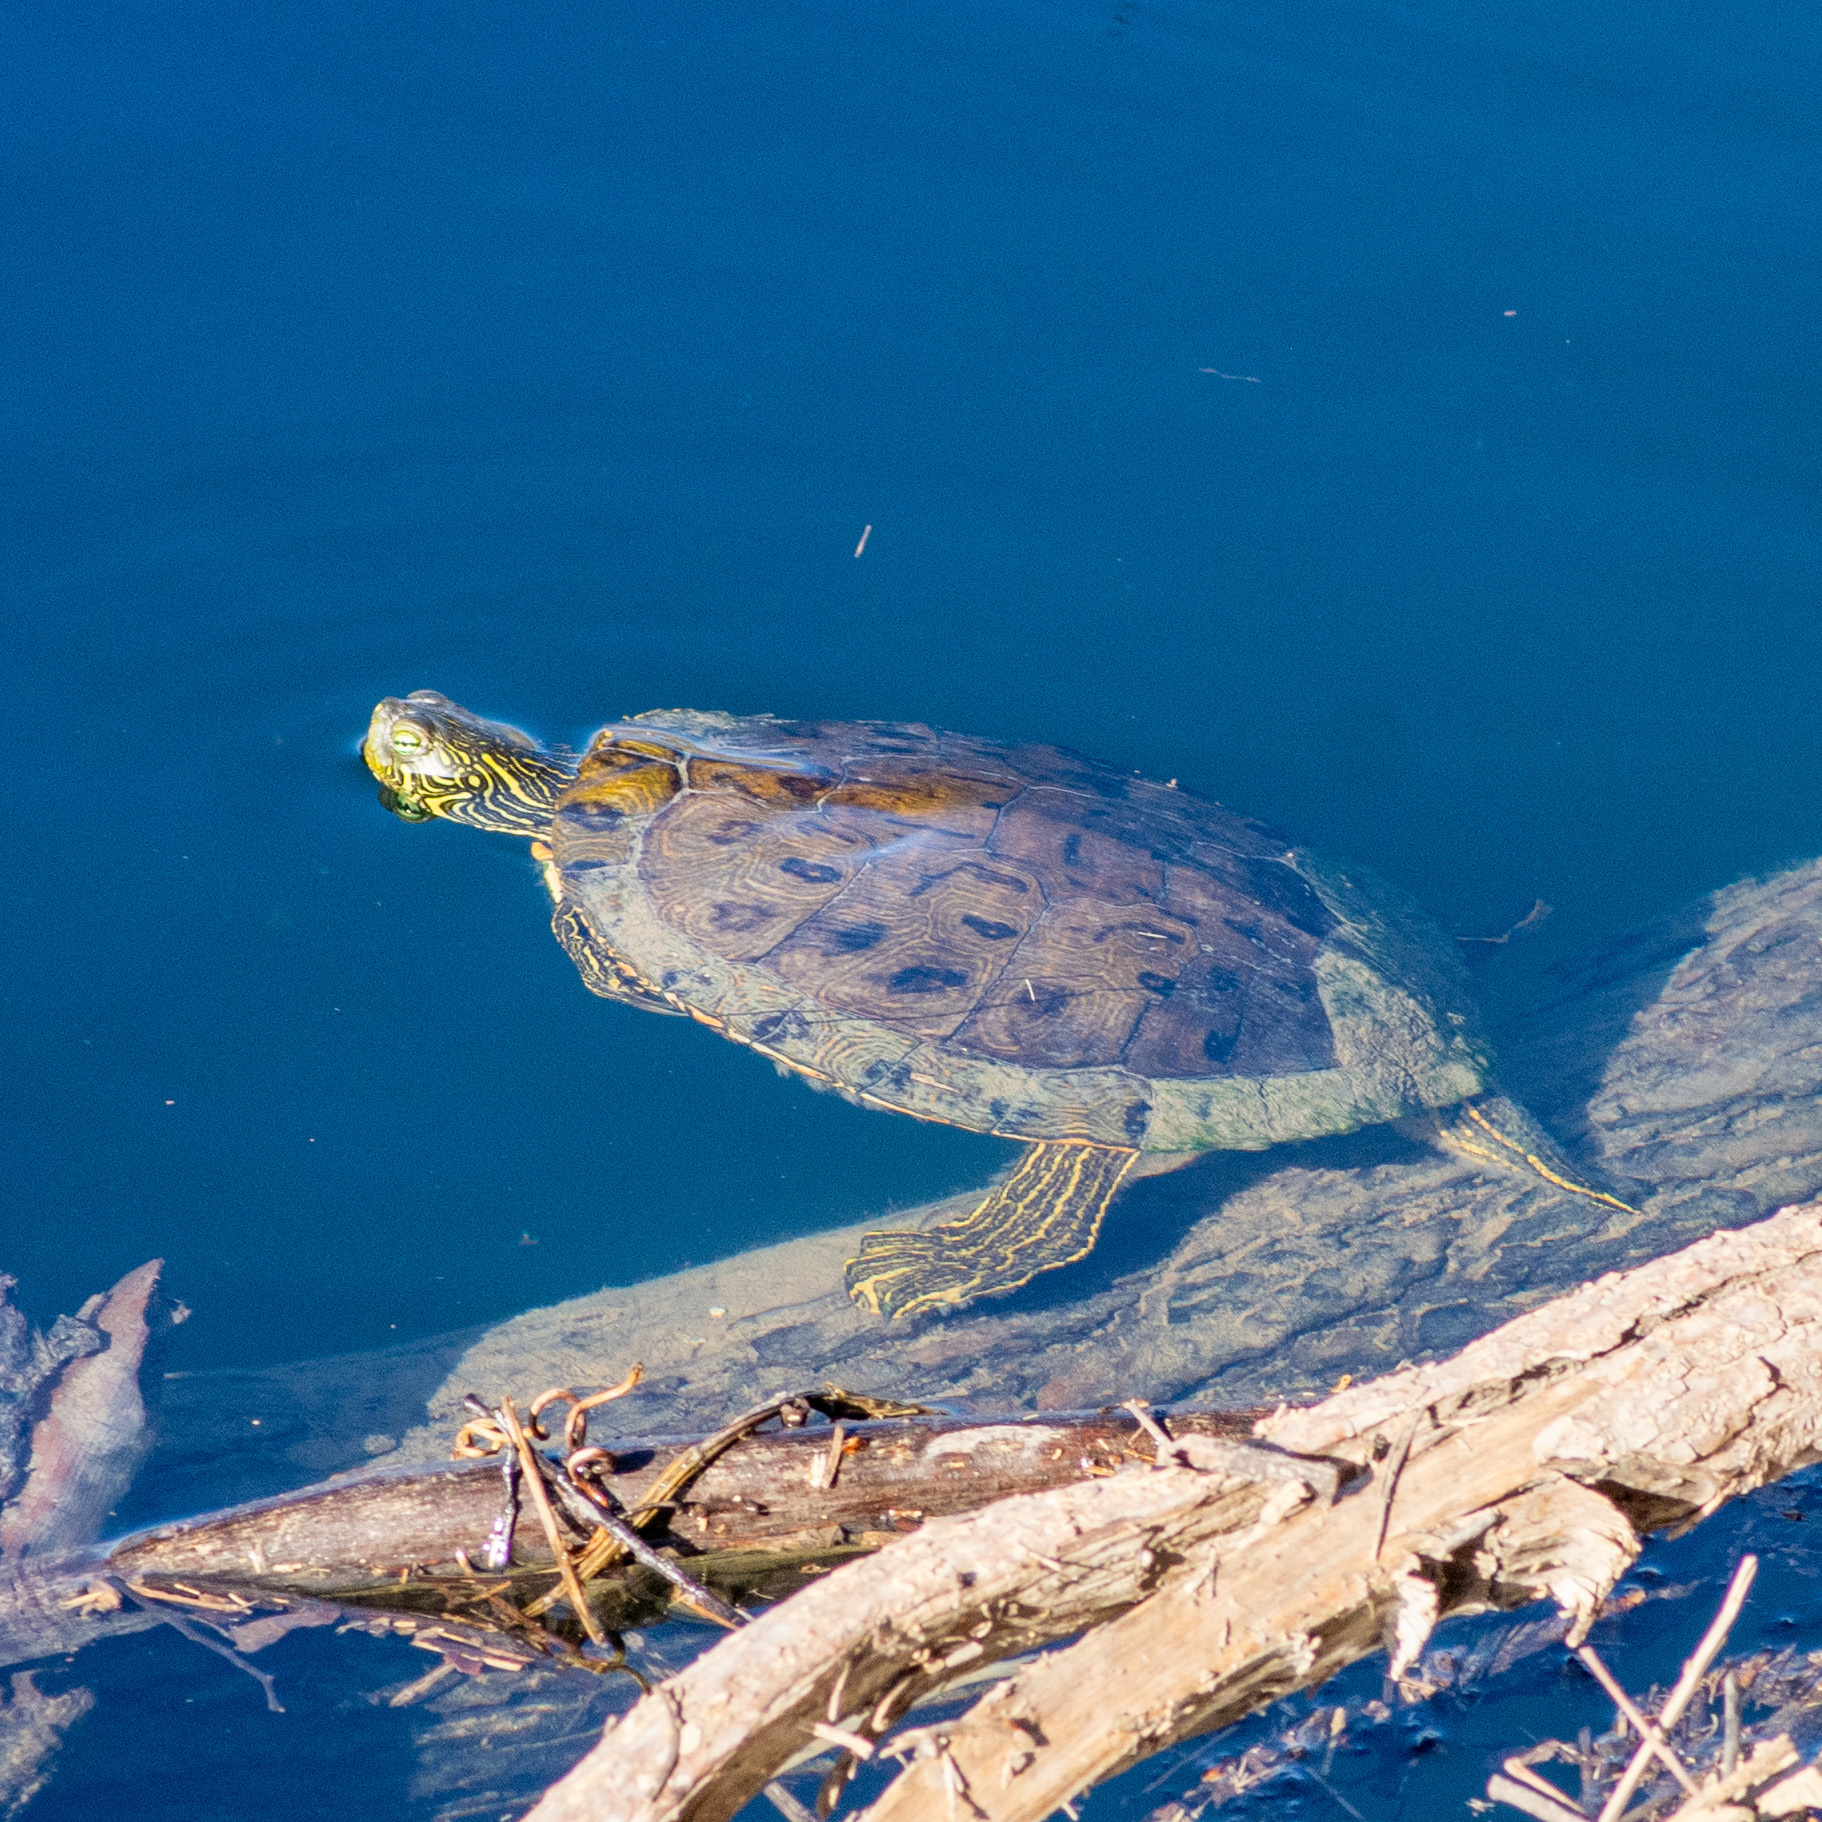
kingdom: Animalia
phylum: Chordata
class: Testudines
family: Emydidae
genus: Pseudemys
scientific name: Pseudemys texana
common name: Texas river cooter
